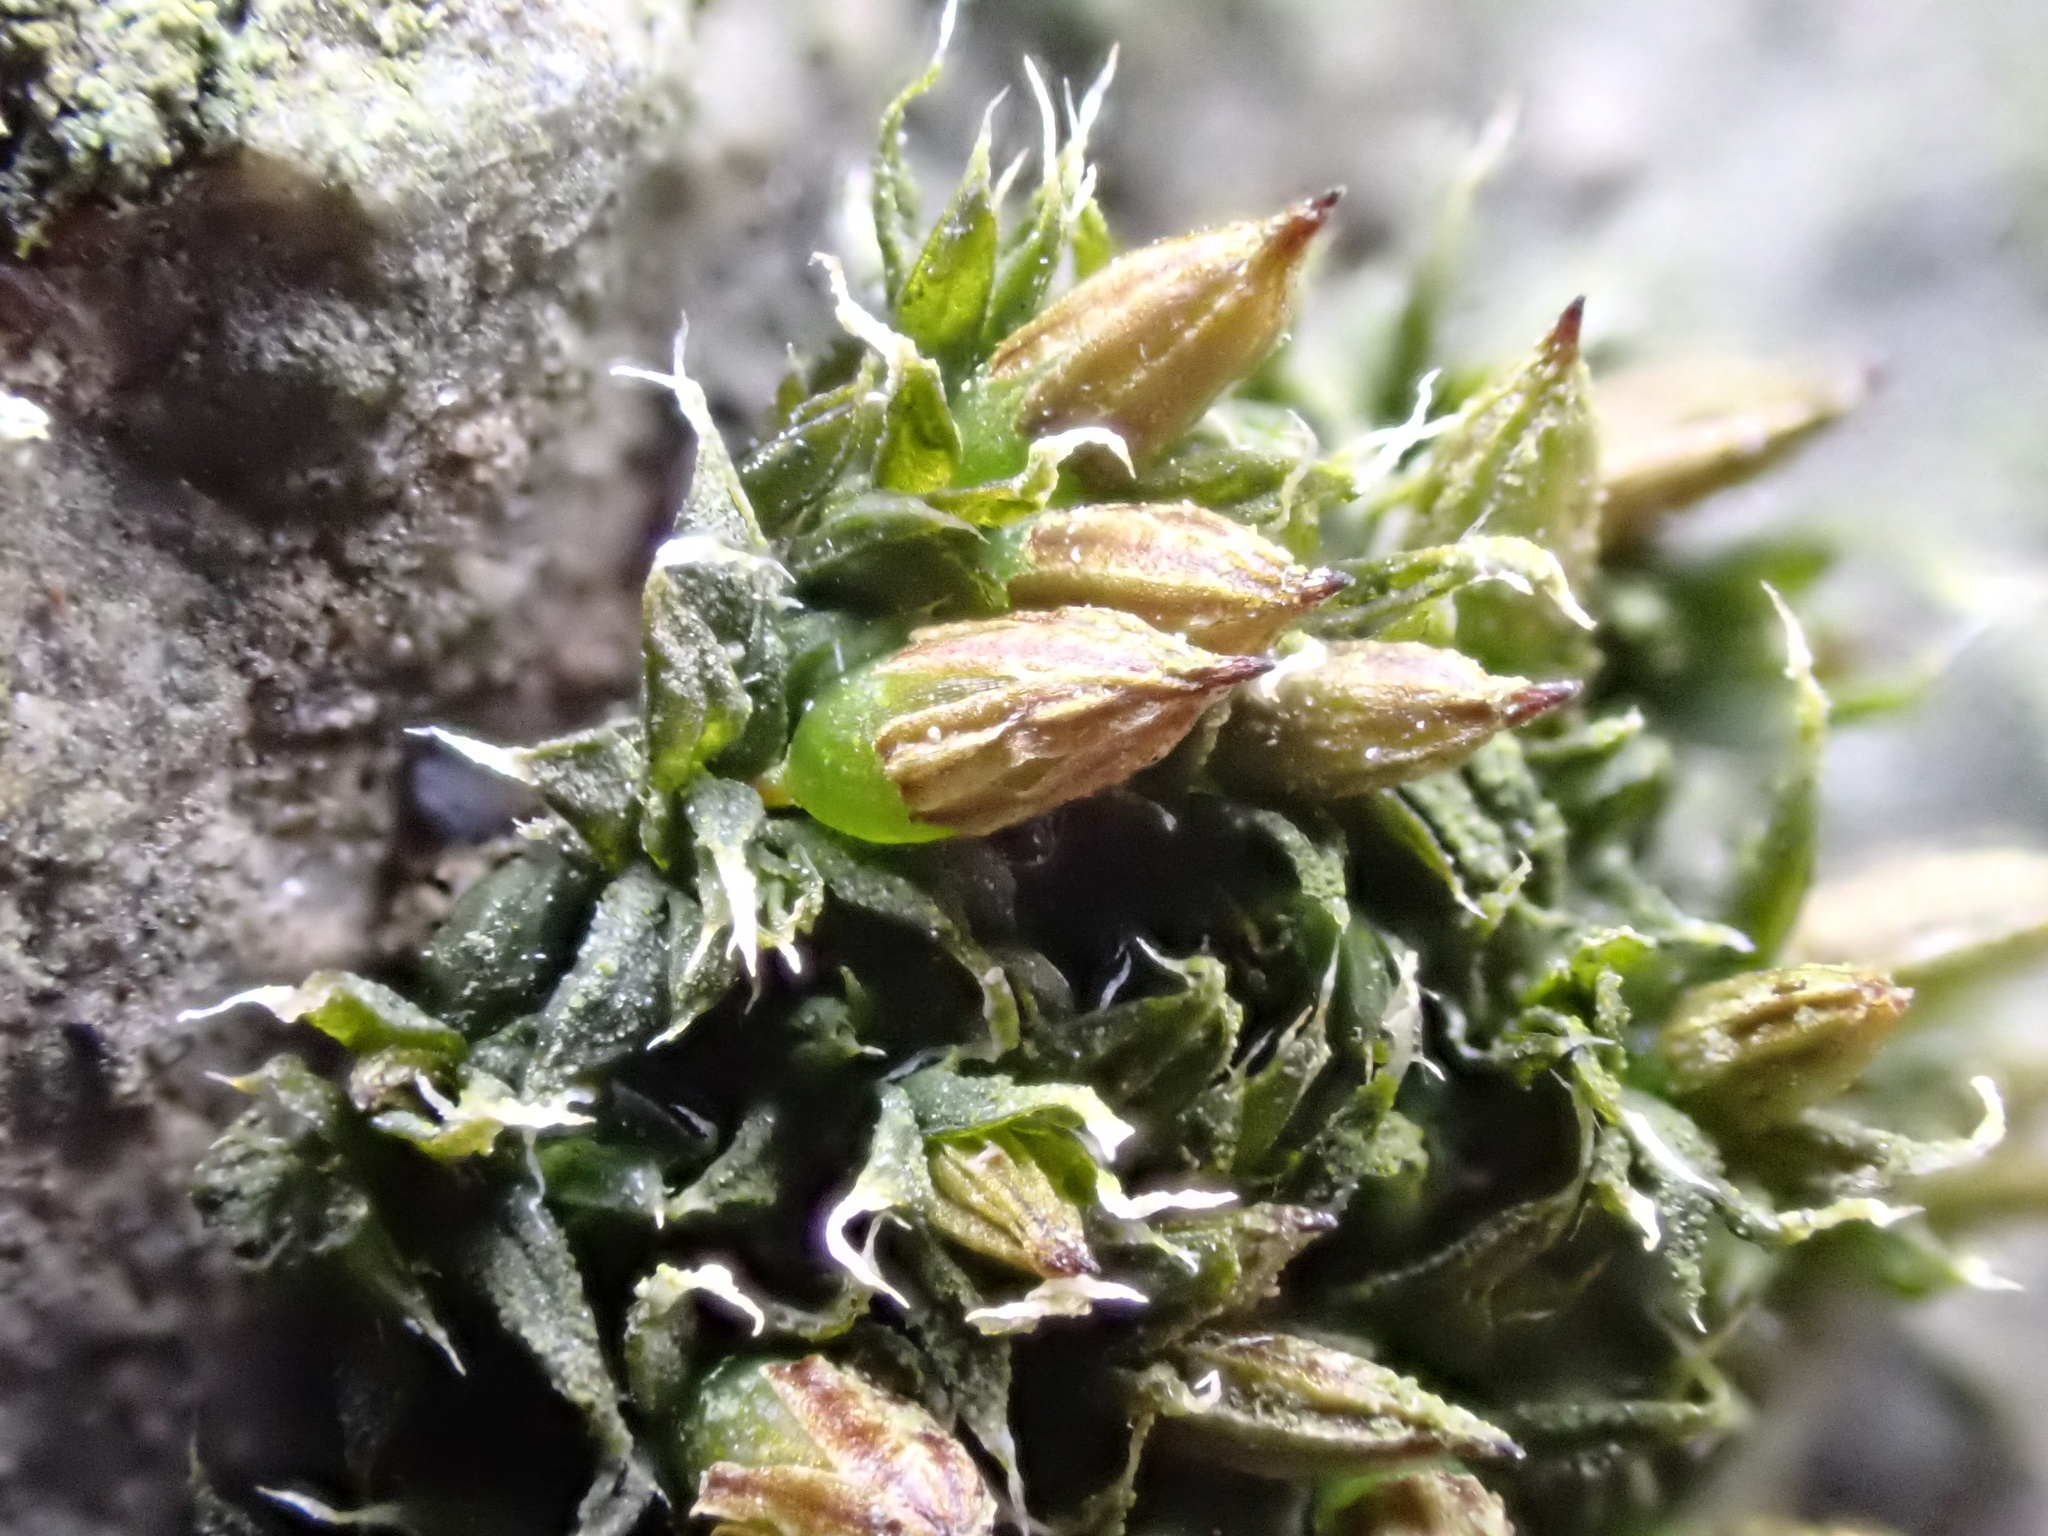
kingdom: Plantae
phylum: Bryophyta
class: Bryopsida
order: Orthotrichales
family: Orthotrichaceae
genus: Orthotrichum
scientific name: Orthotrichum diaphanum
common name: White-tipped bristle-moss
